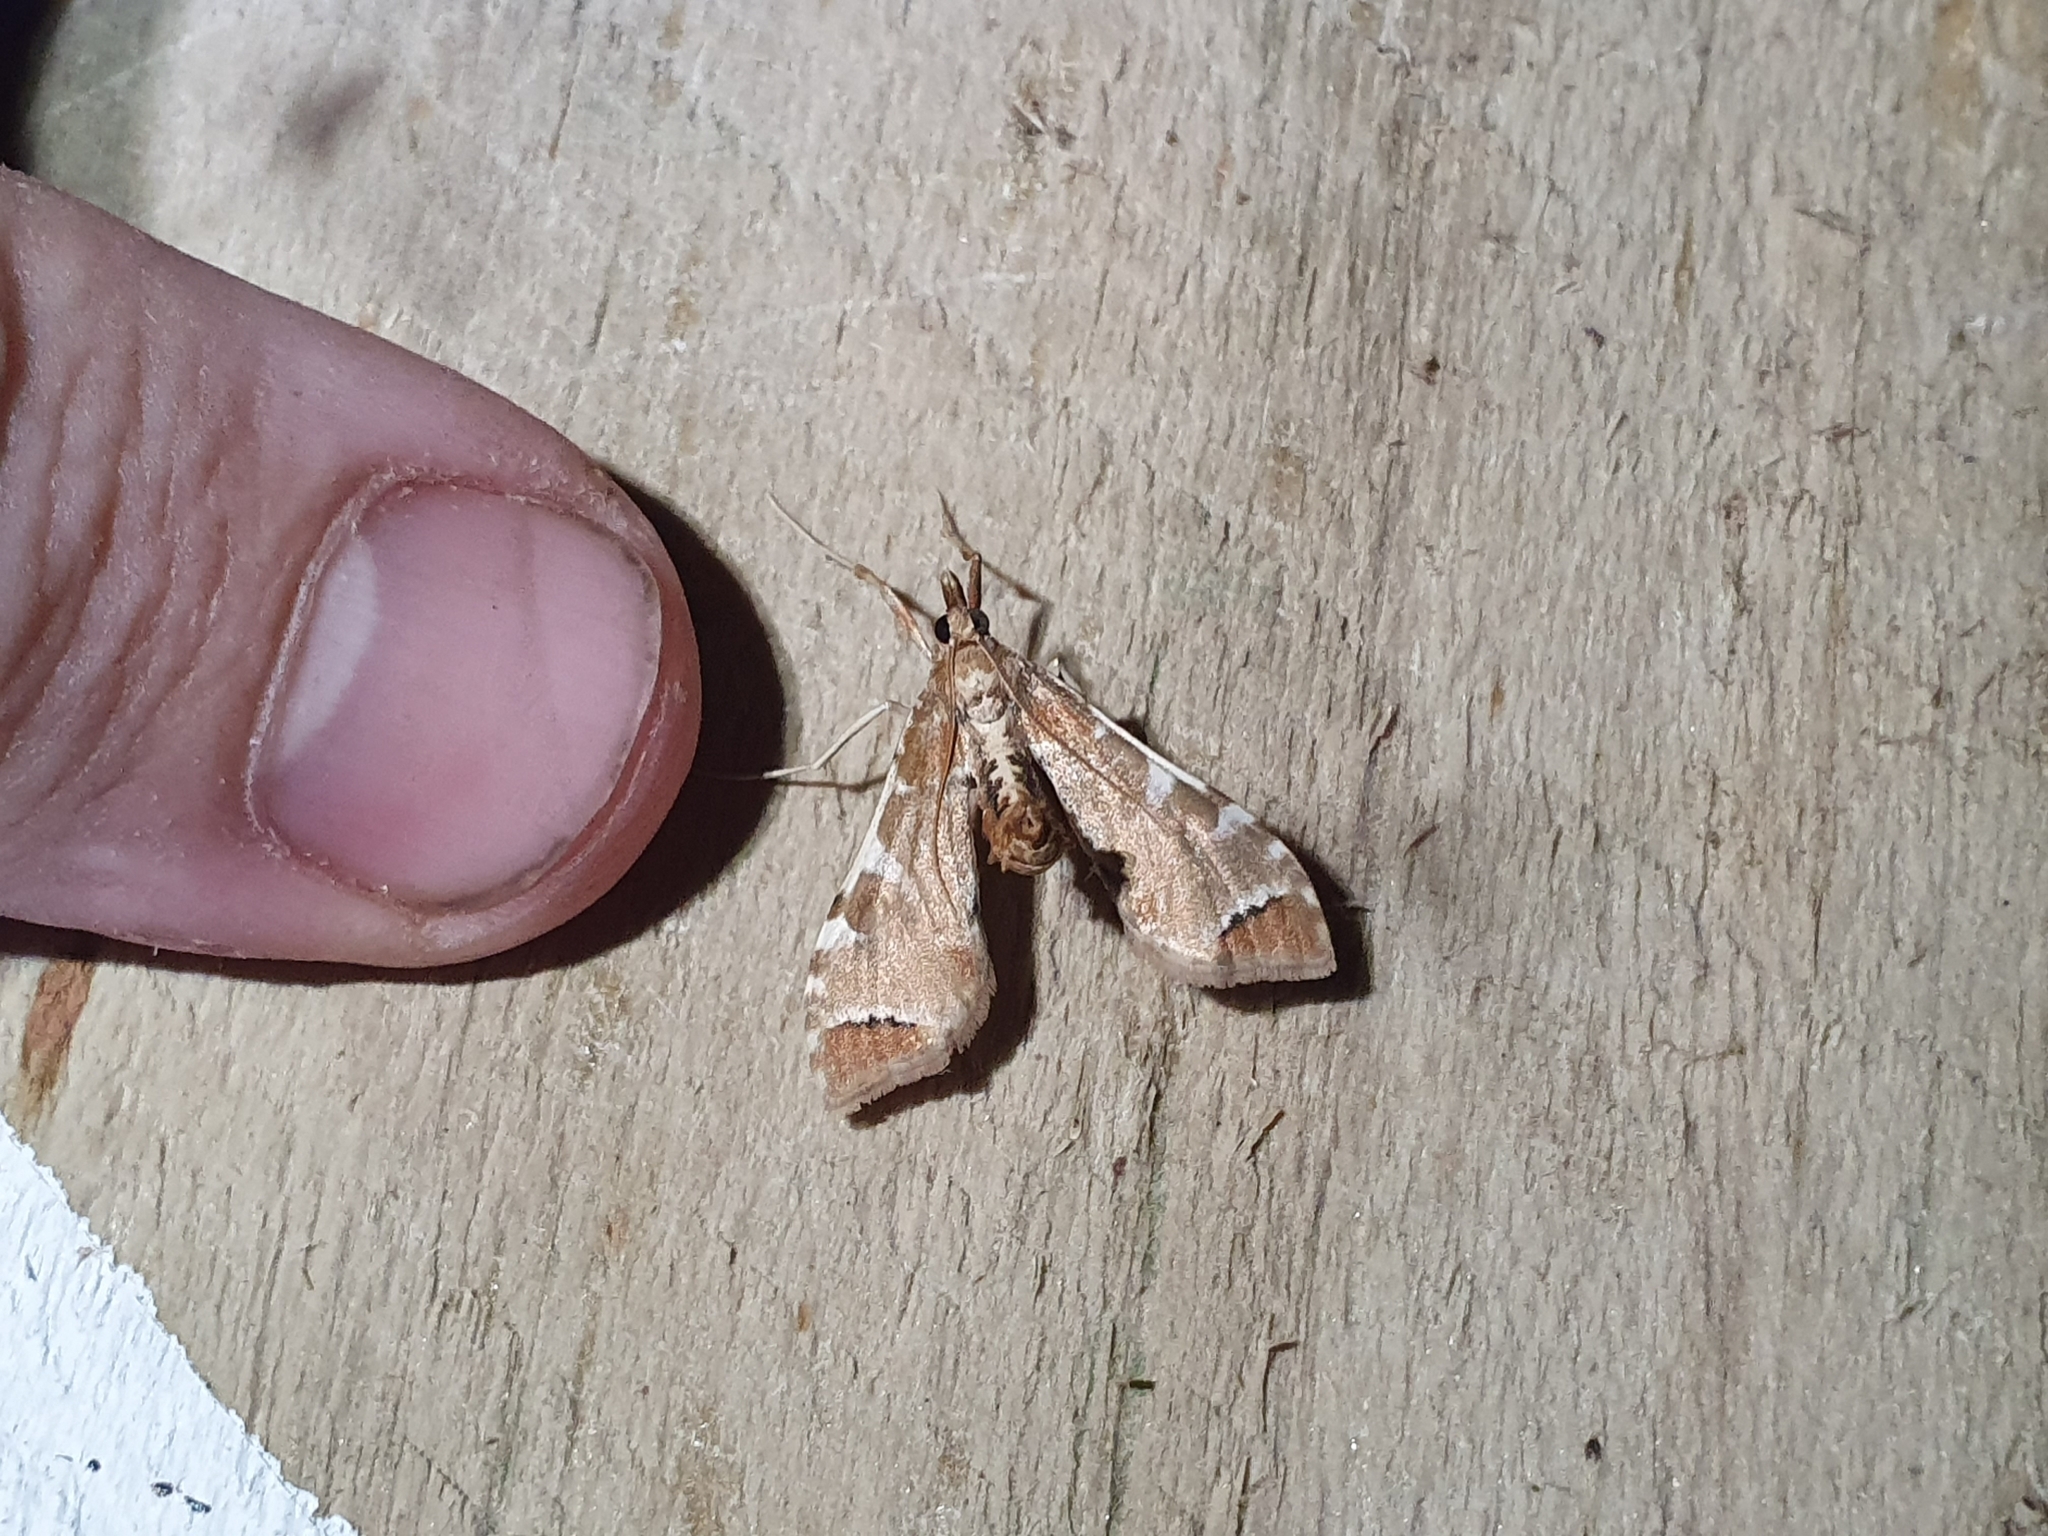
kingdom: Animalia
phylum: Arthropoda
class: Insecta
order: Lepidoptera
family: Crambidae
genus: Sceliodes
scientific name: Sceliodes cordalis
